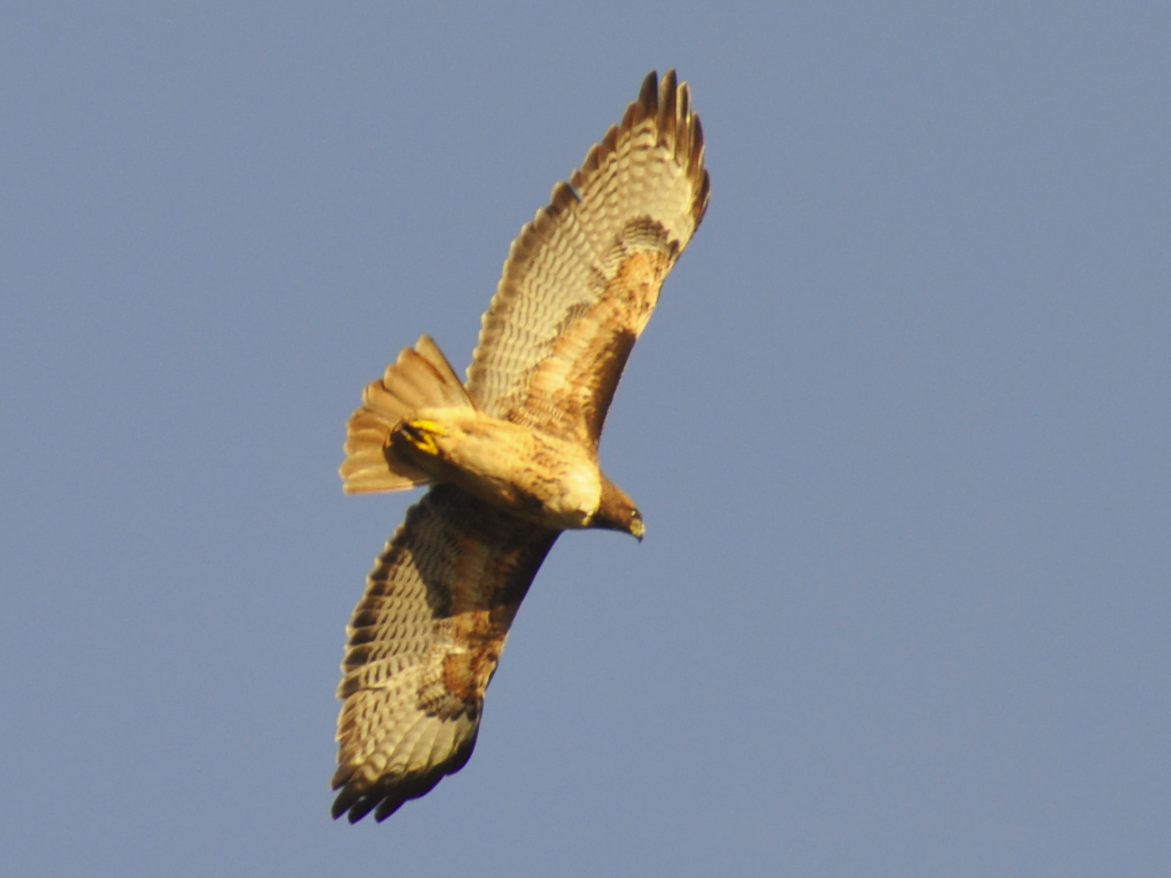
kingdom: Animalia
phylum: Chordata
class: Aves
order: Accipitriformes
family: Accipitridae
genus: Buteo
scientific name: Buteo jamaicensis
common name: Red-tailed hawk
